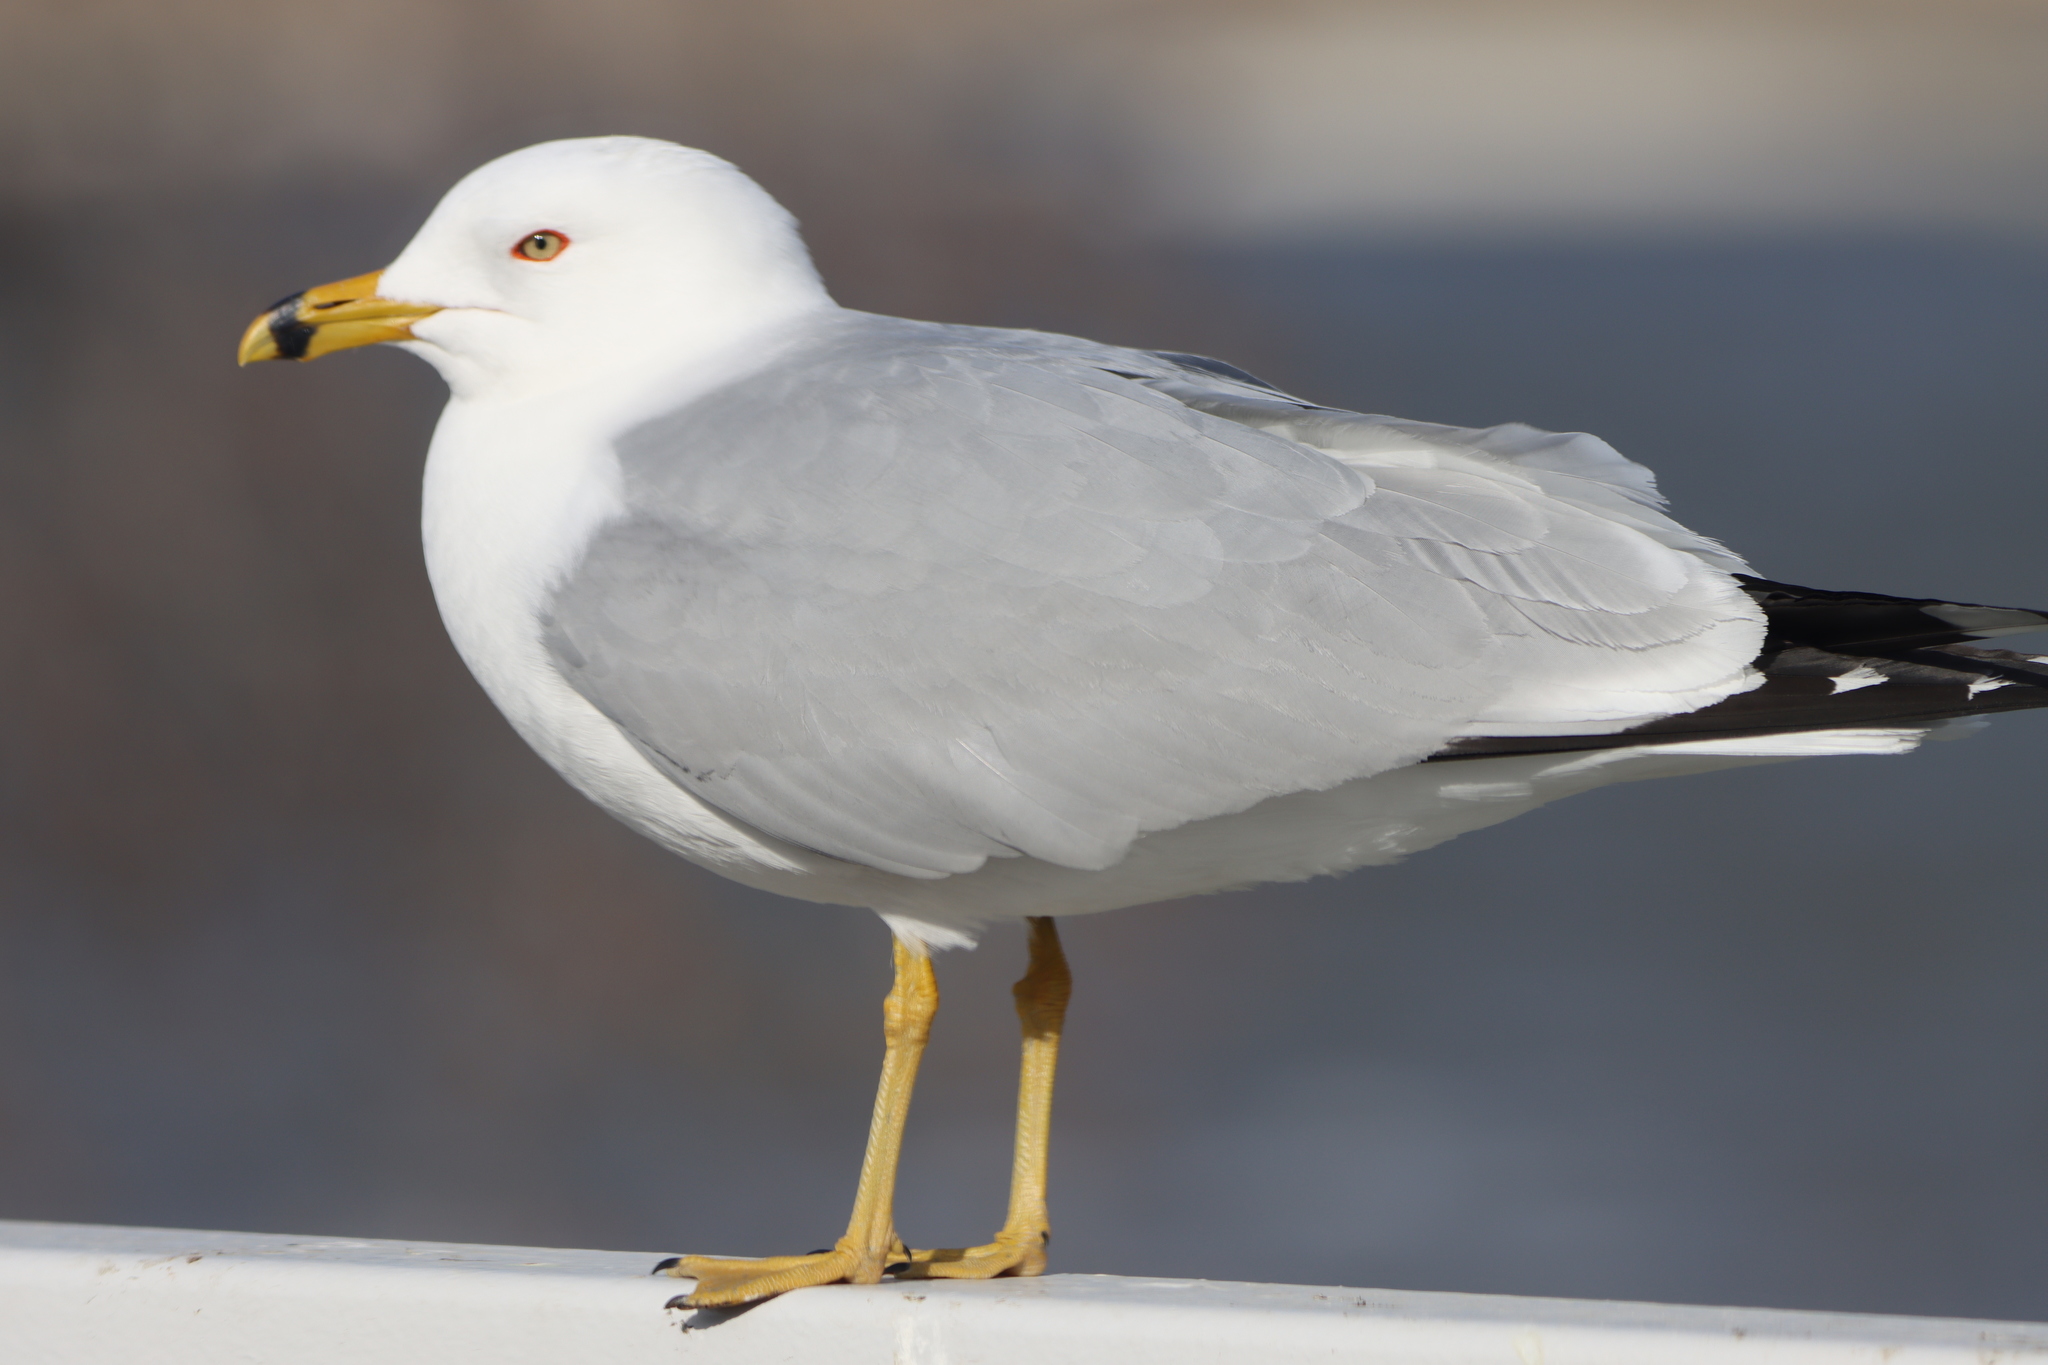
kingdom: Animalia
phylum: Chordata
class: Aves
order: Charadriiformes
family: Laridae
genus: Larus
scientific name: Larus delawarensis
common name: Ring-billed gull
